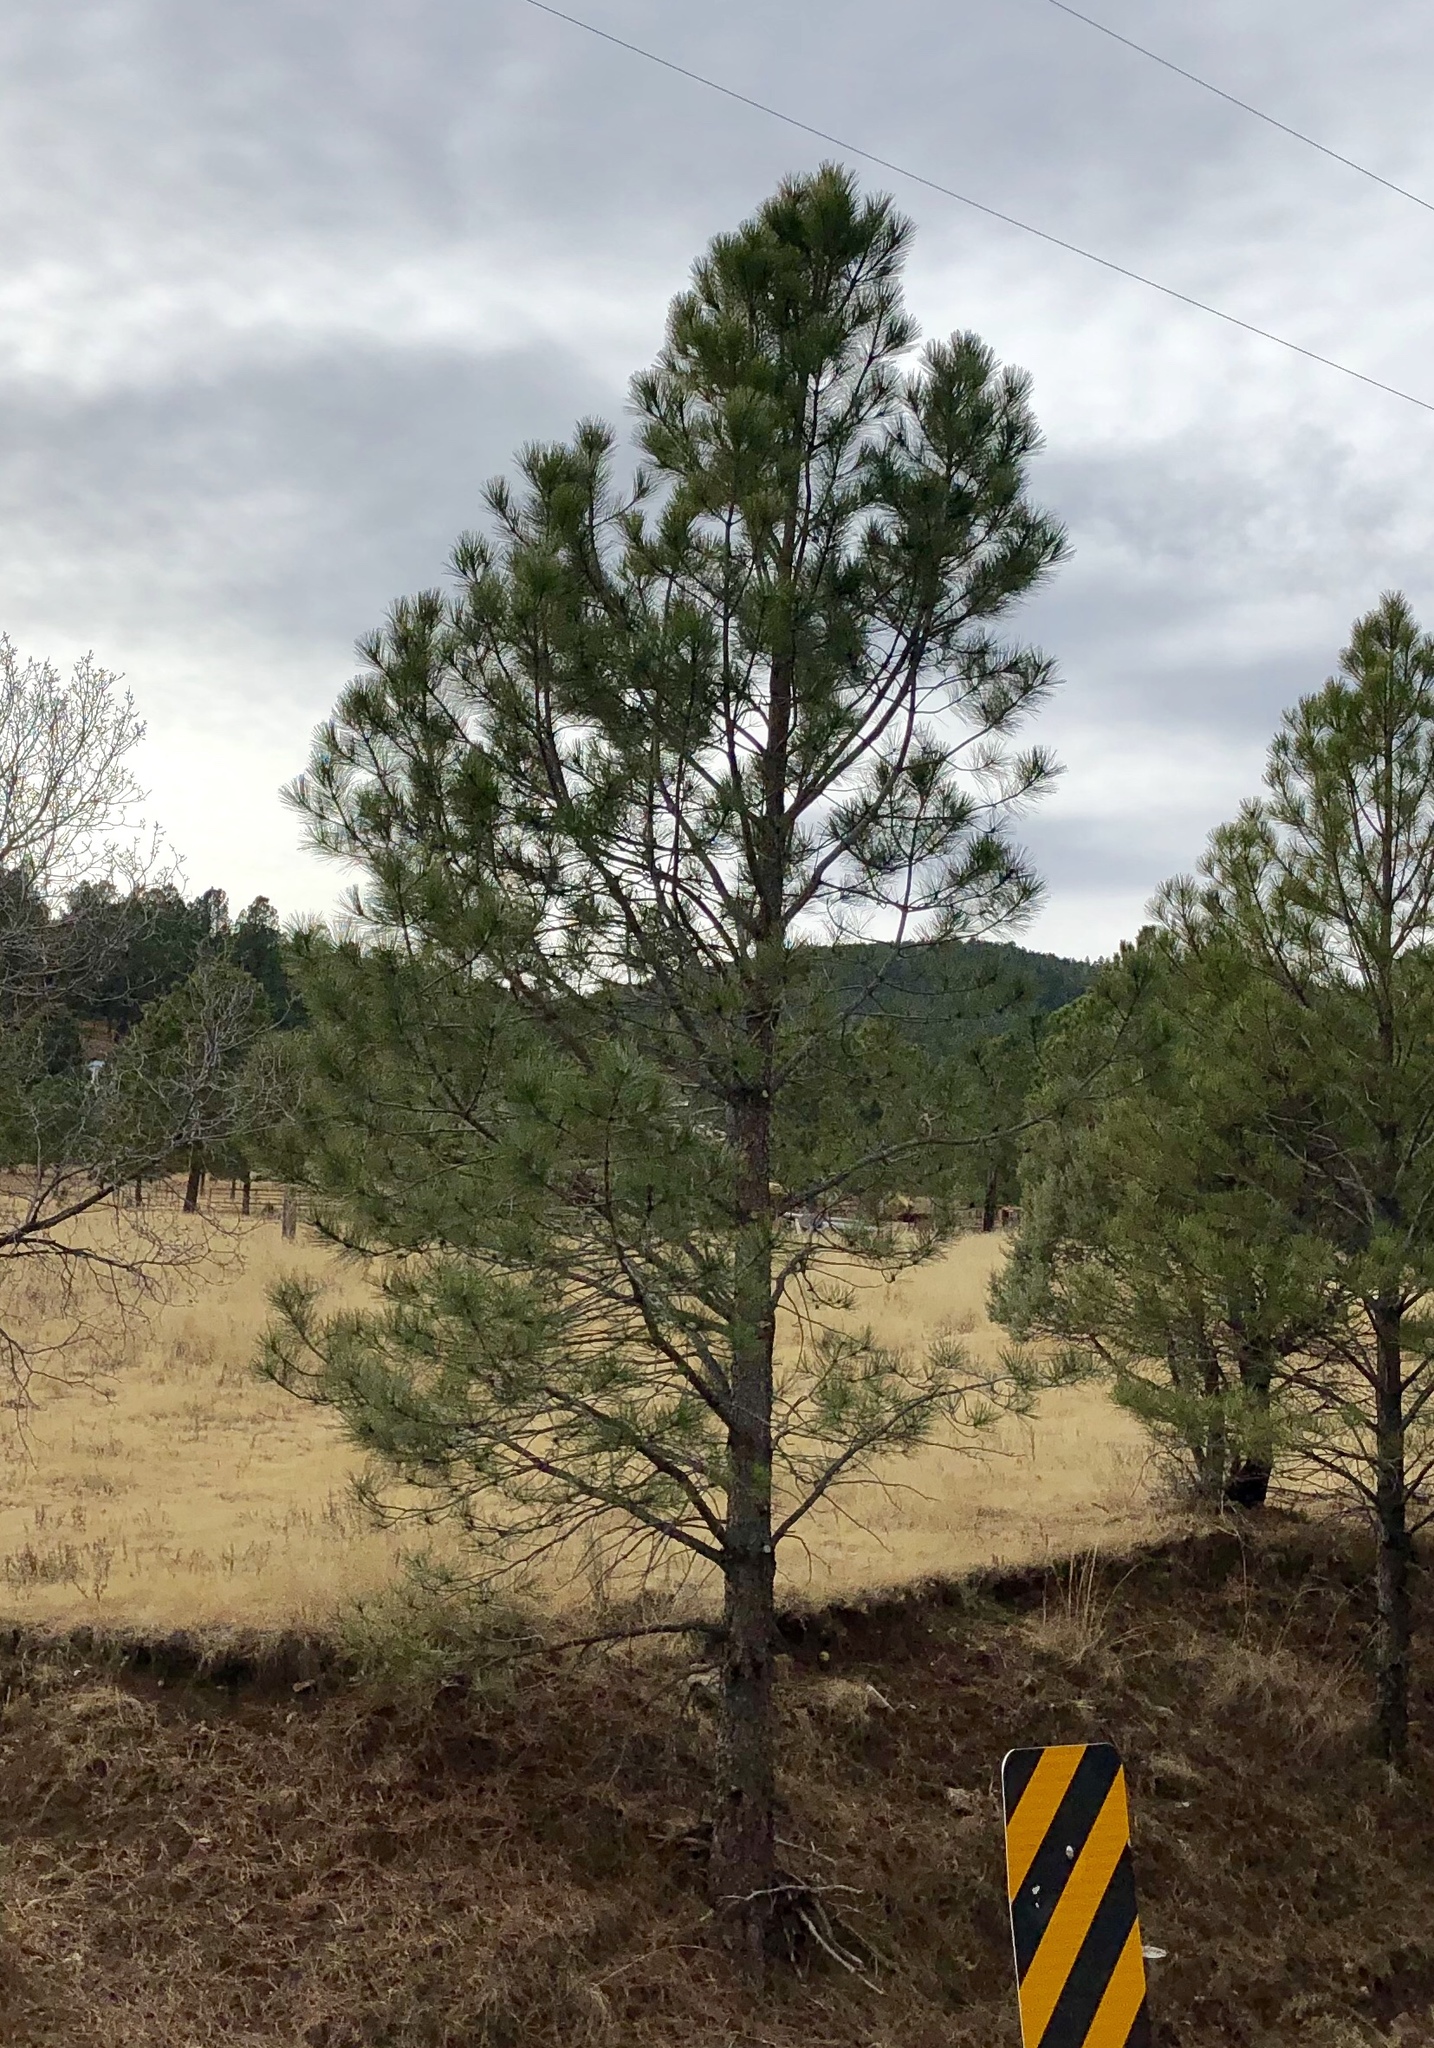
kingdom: Plantae
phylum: Tracheophyta
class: Pinopsida
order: Pinales
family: Pinaceae
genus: Pinus
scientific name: Pinus ponderosa
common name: Western yellow-pine
